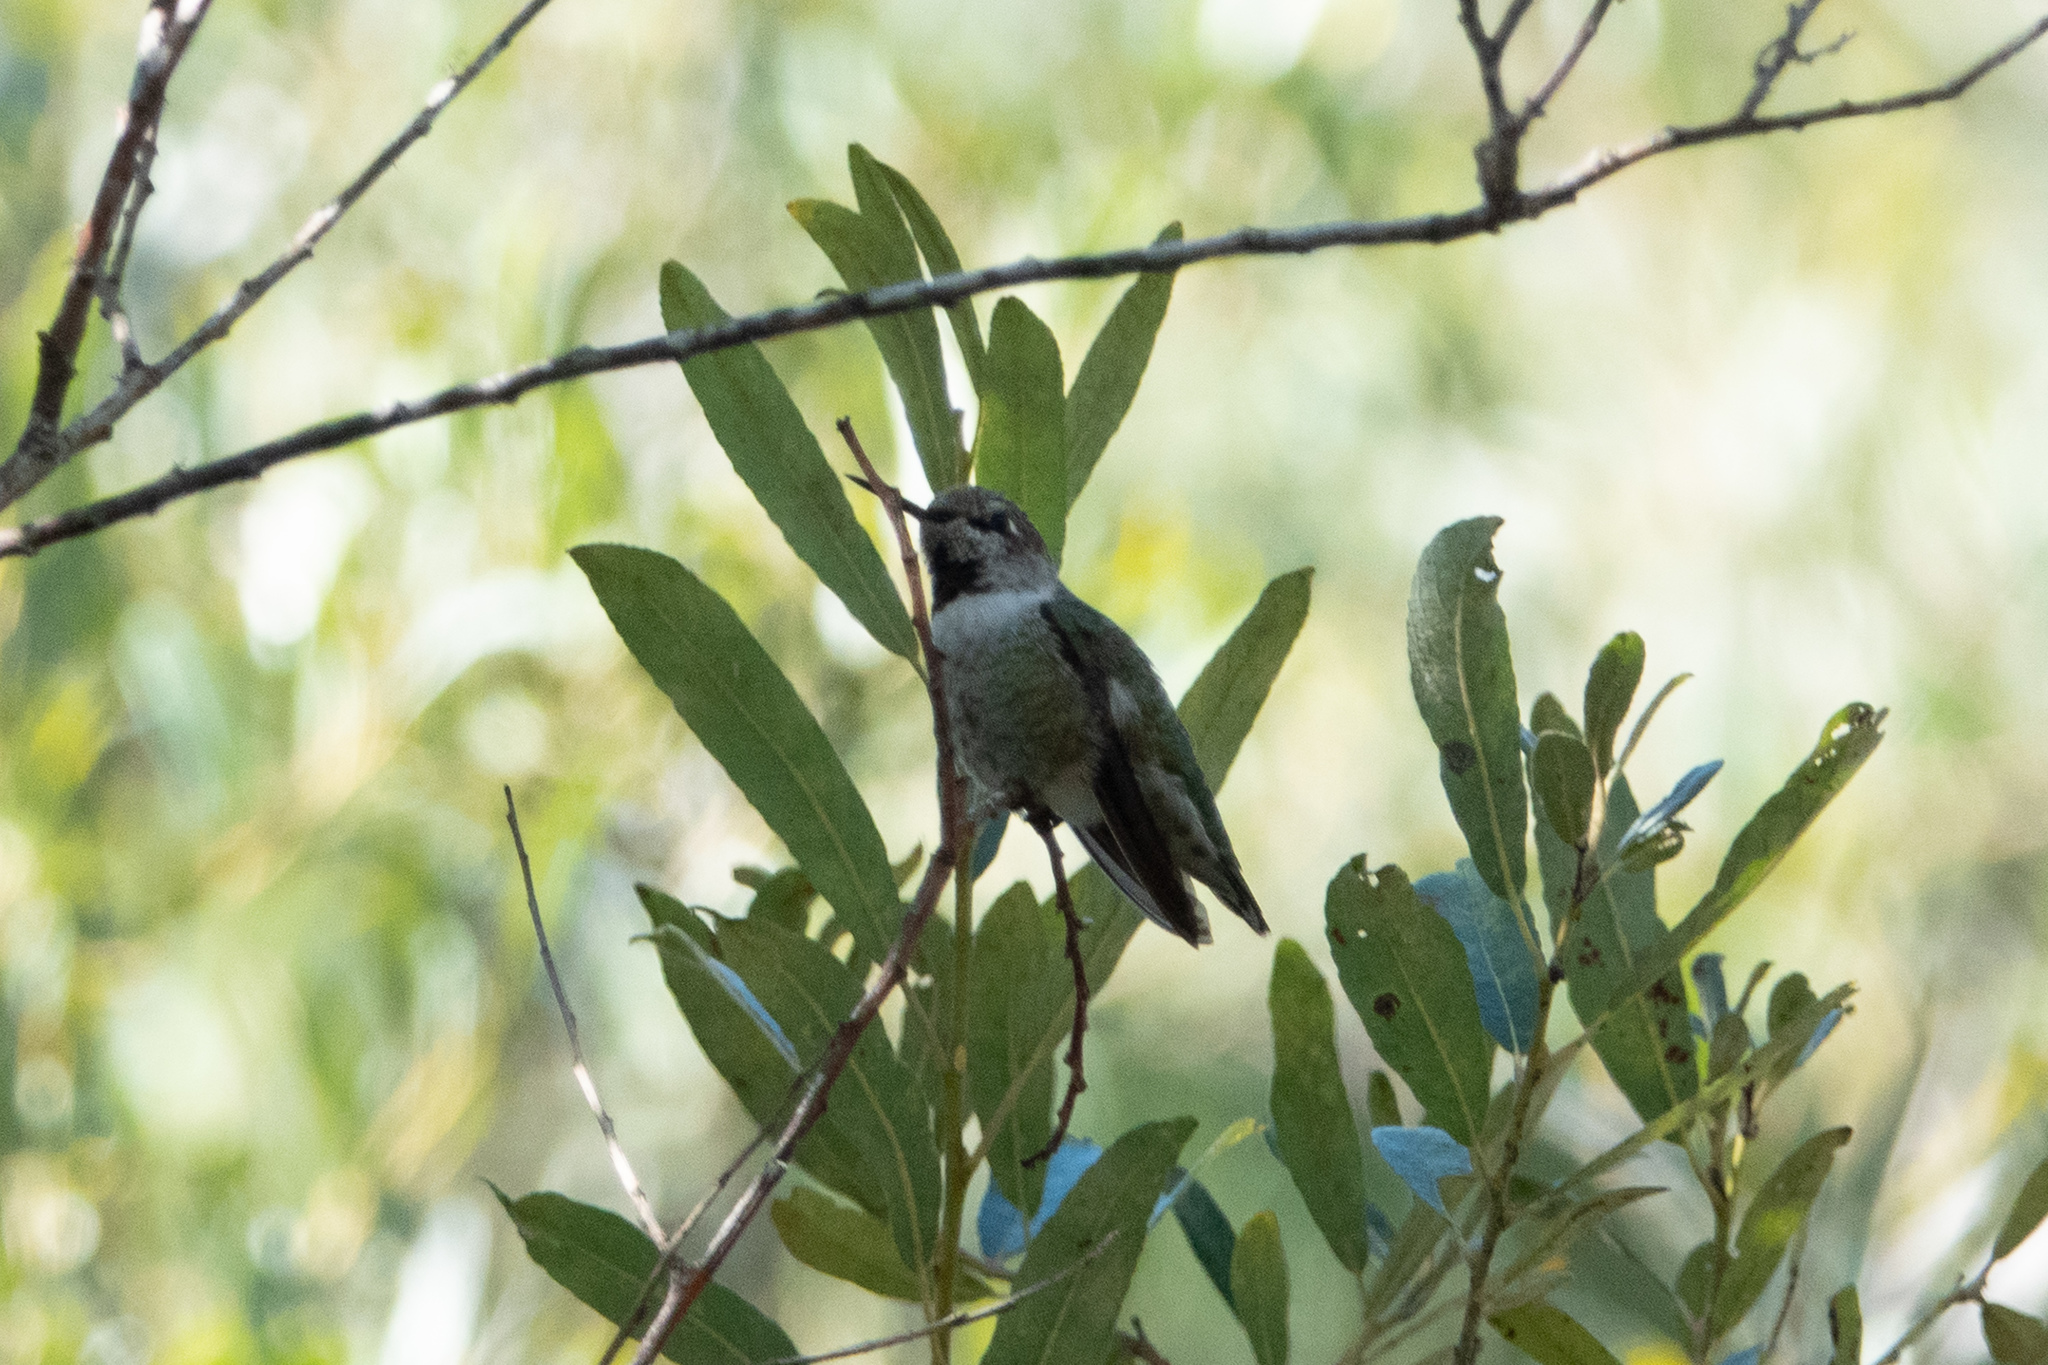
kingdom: Animalia
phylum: Chordata
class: Aves
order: Apodiformes
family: Trochilidae
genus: Calypte
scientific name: Calypte anna
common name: Anna's hummingbird
